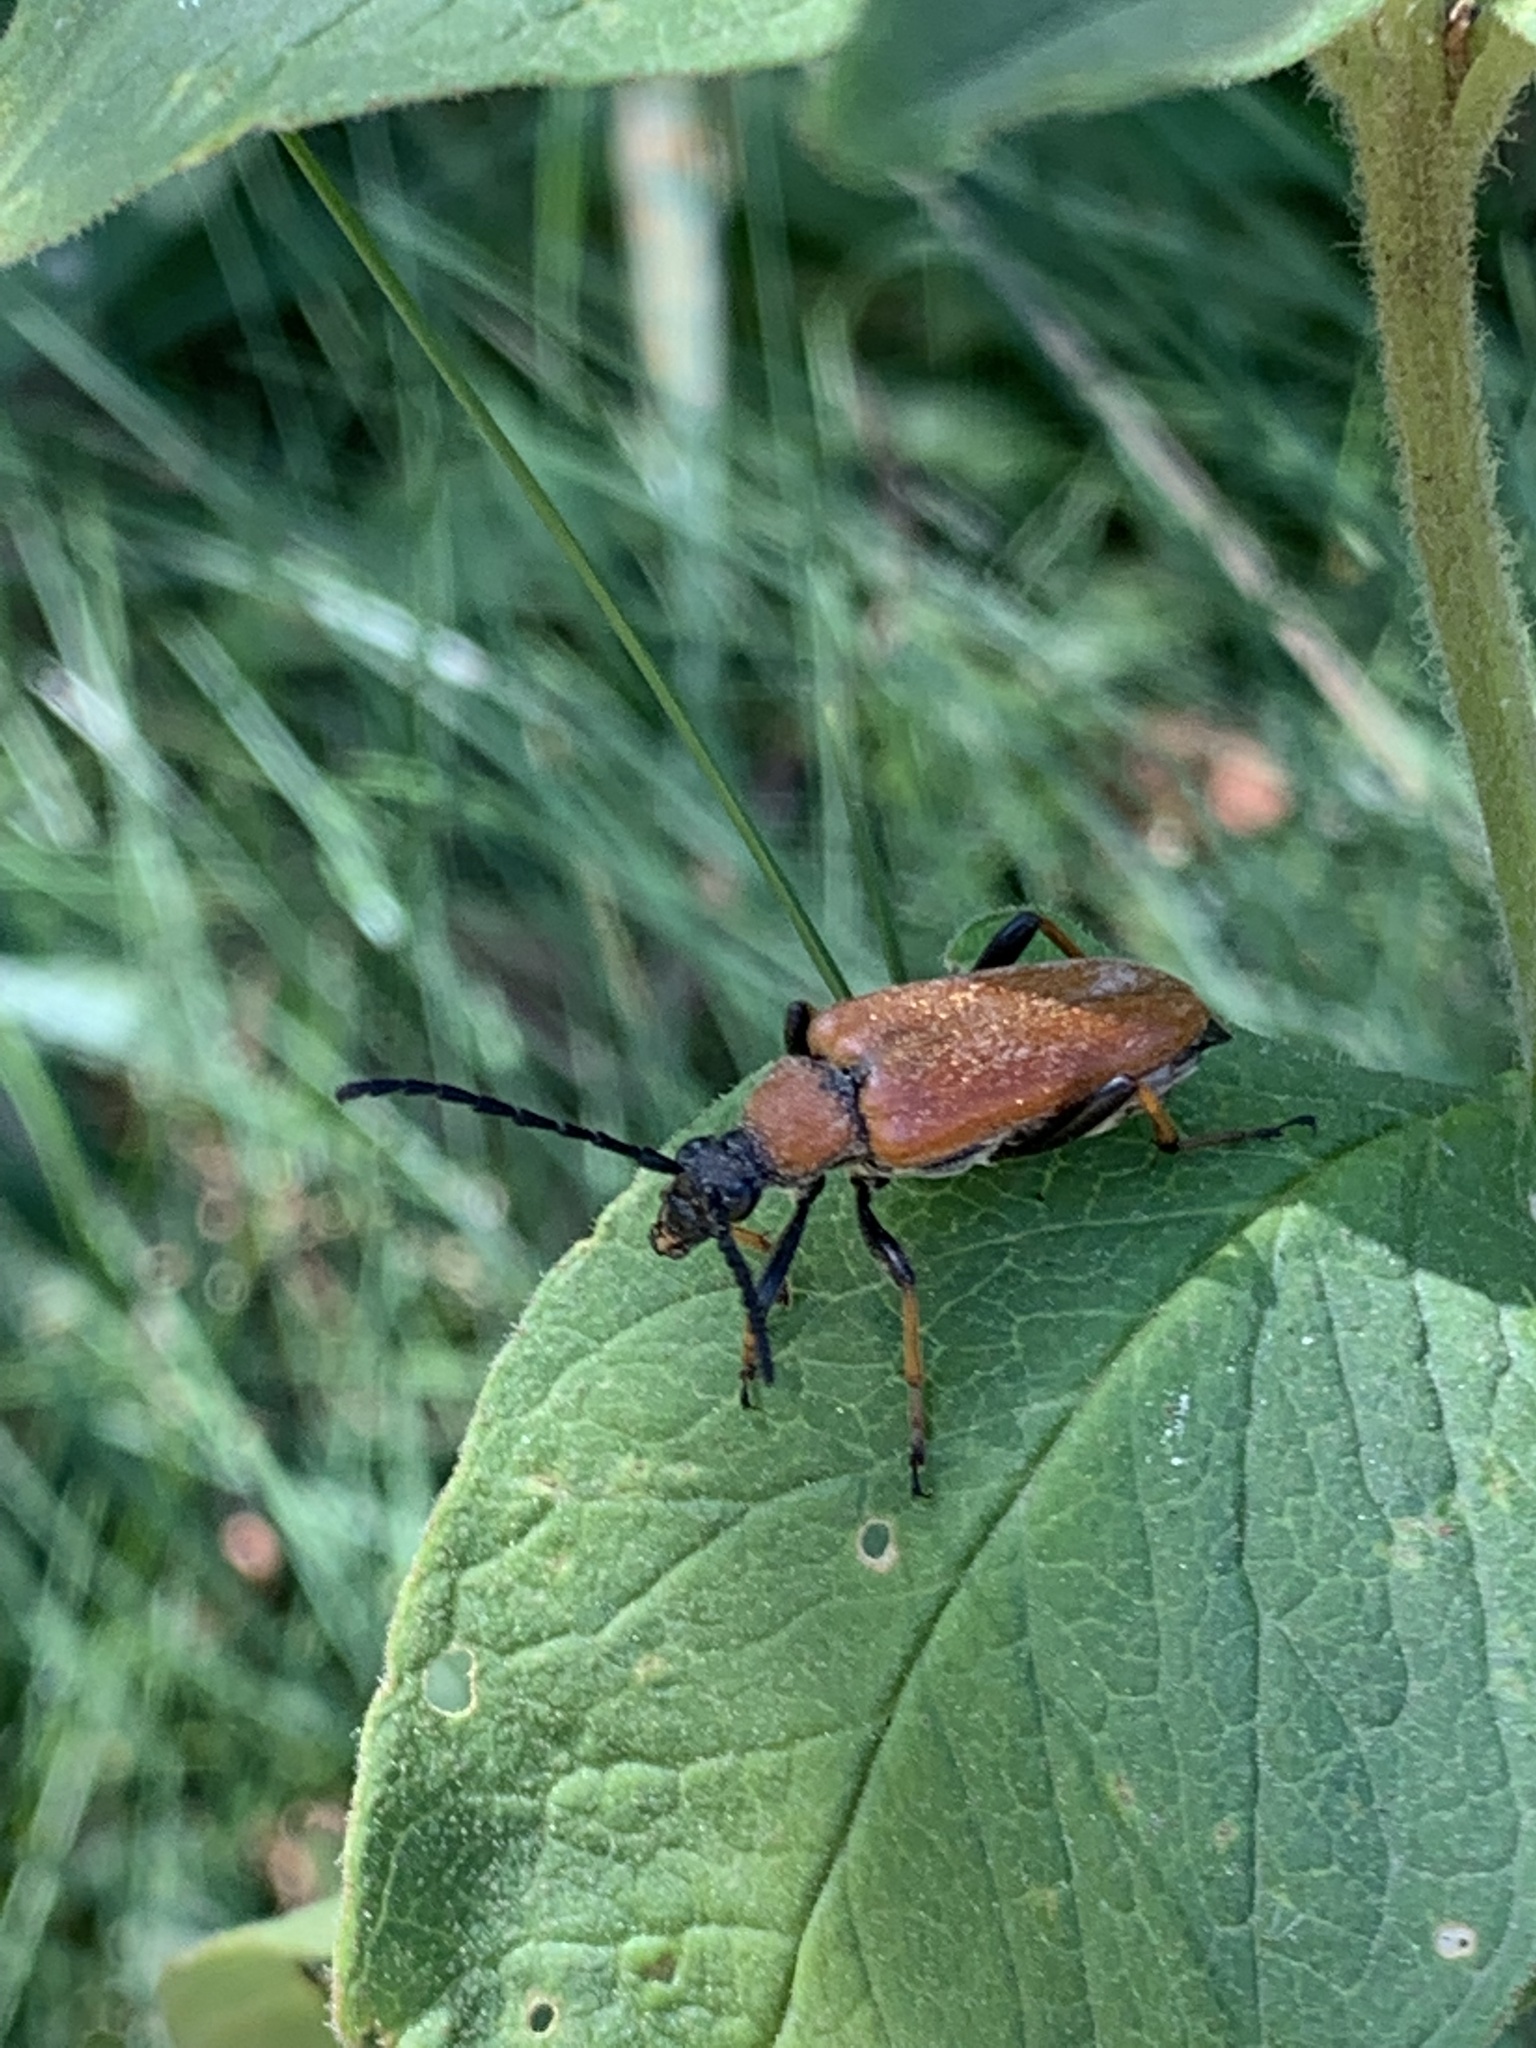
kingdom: Animalia
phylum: Arthropoda
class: Insecta
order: Coleoptera
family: Cerambycidae
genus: Stictoleptura
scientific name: Stictoleptura rubra
